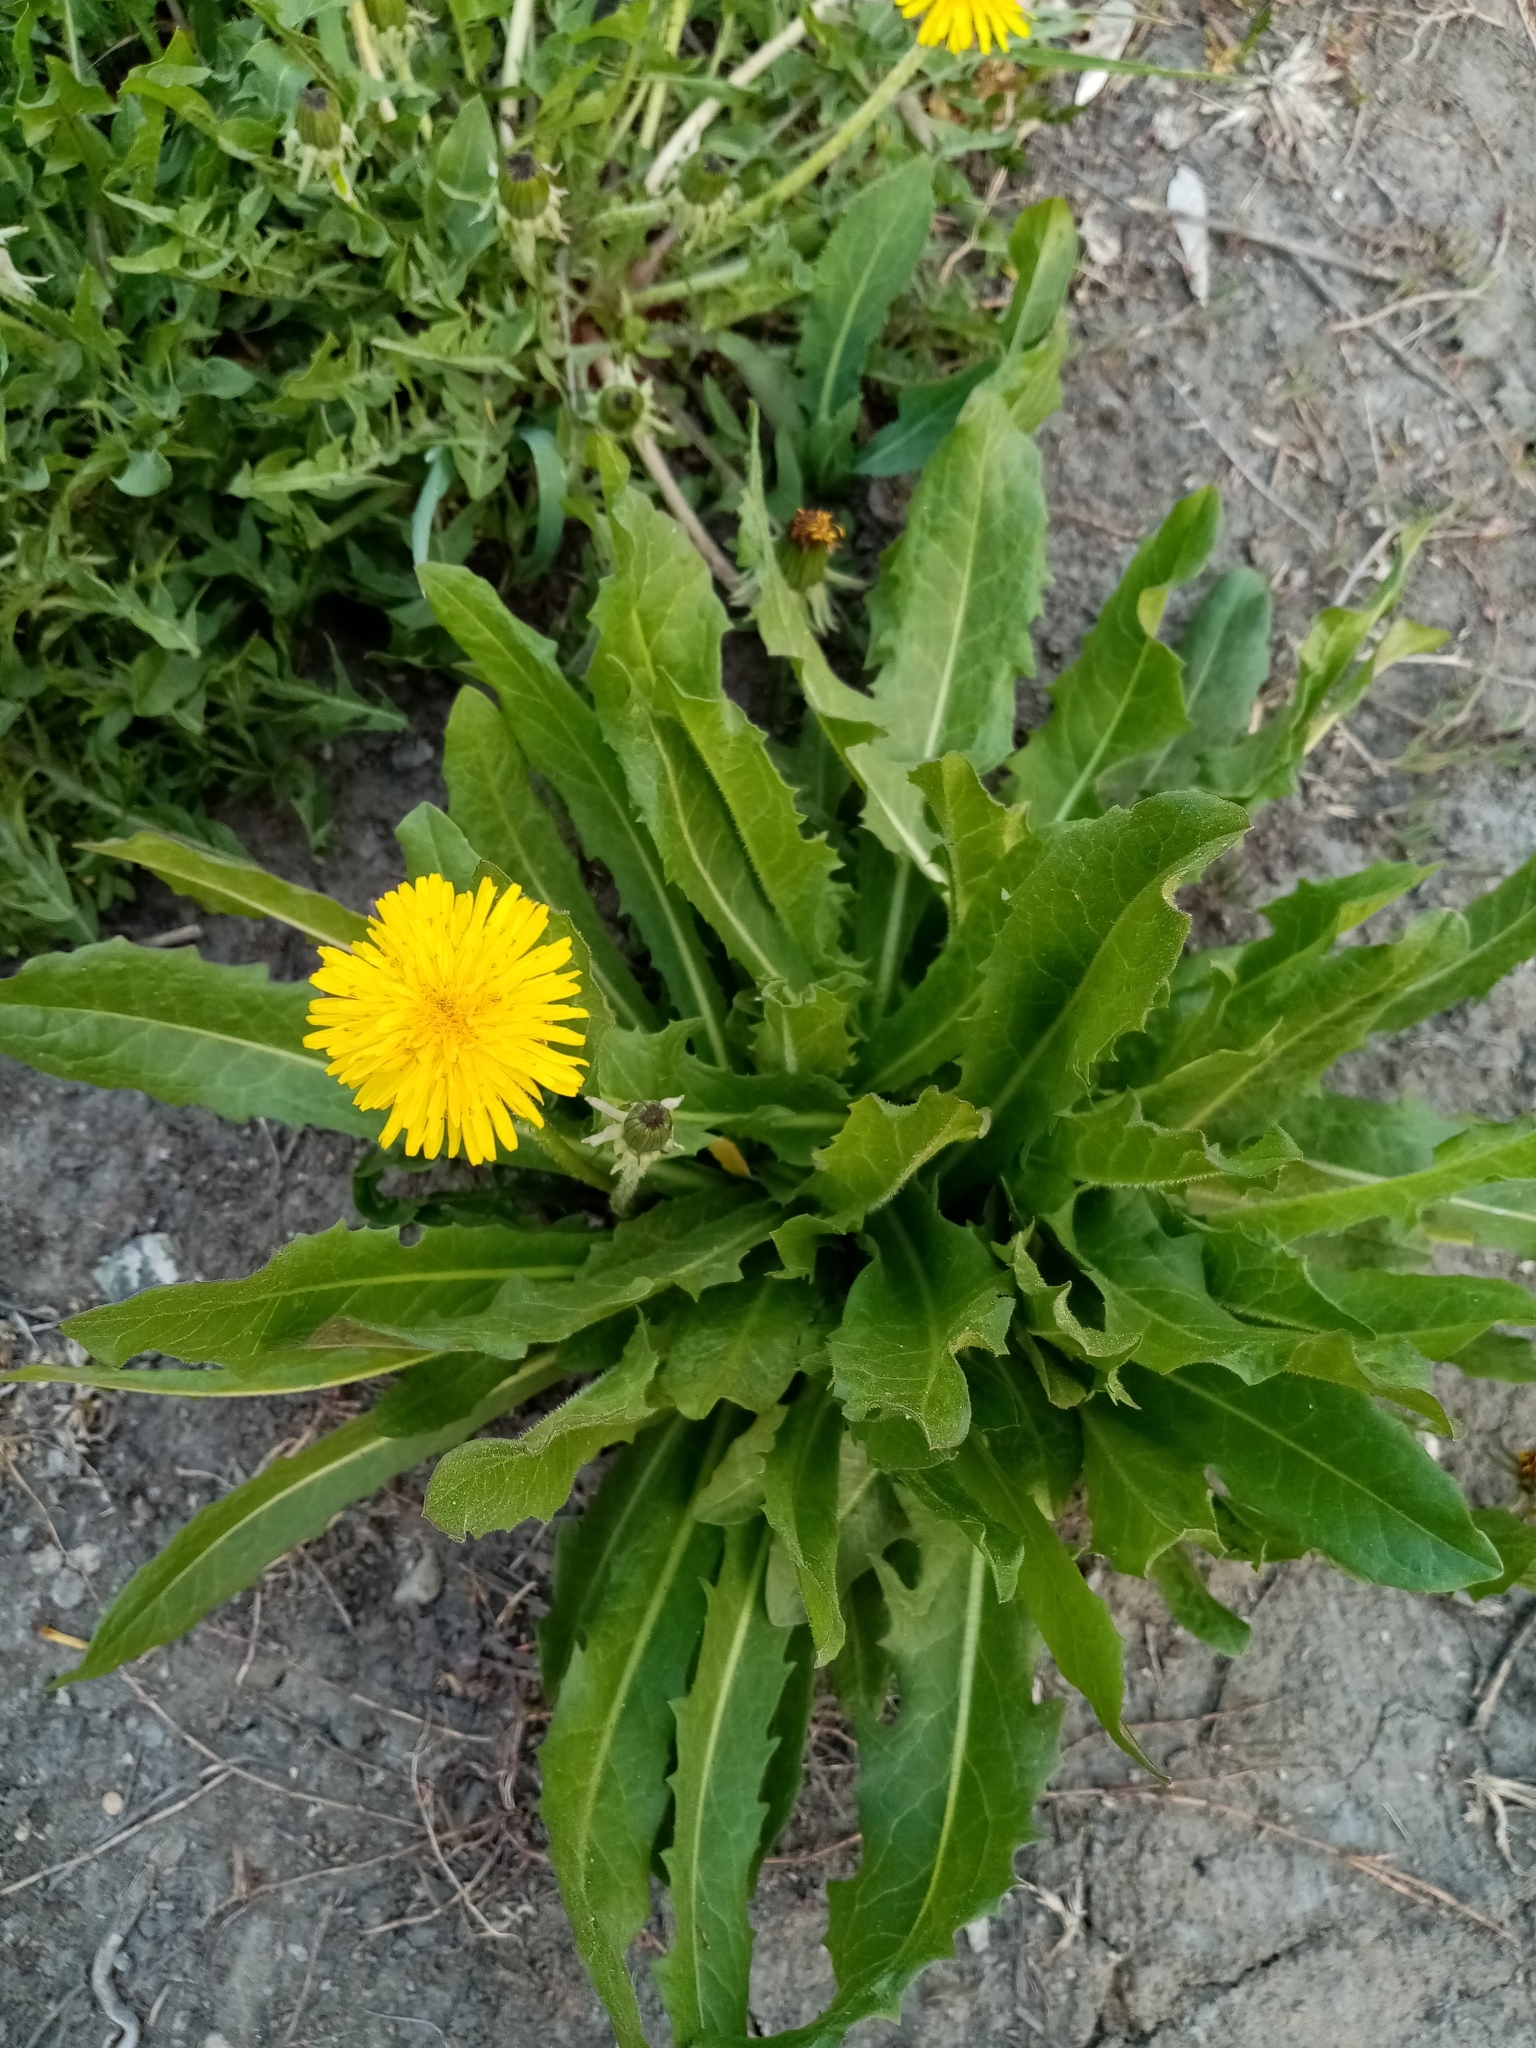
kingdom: Plantae
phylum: Tracheophyta
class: Magnoliopsida
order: Asterales
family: Asteraceae
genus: Taraxacum
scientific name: Taraxacum officinale
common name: Common dandelion
